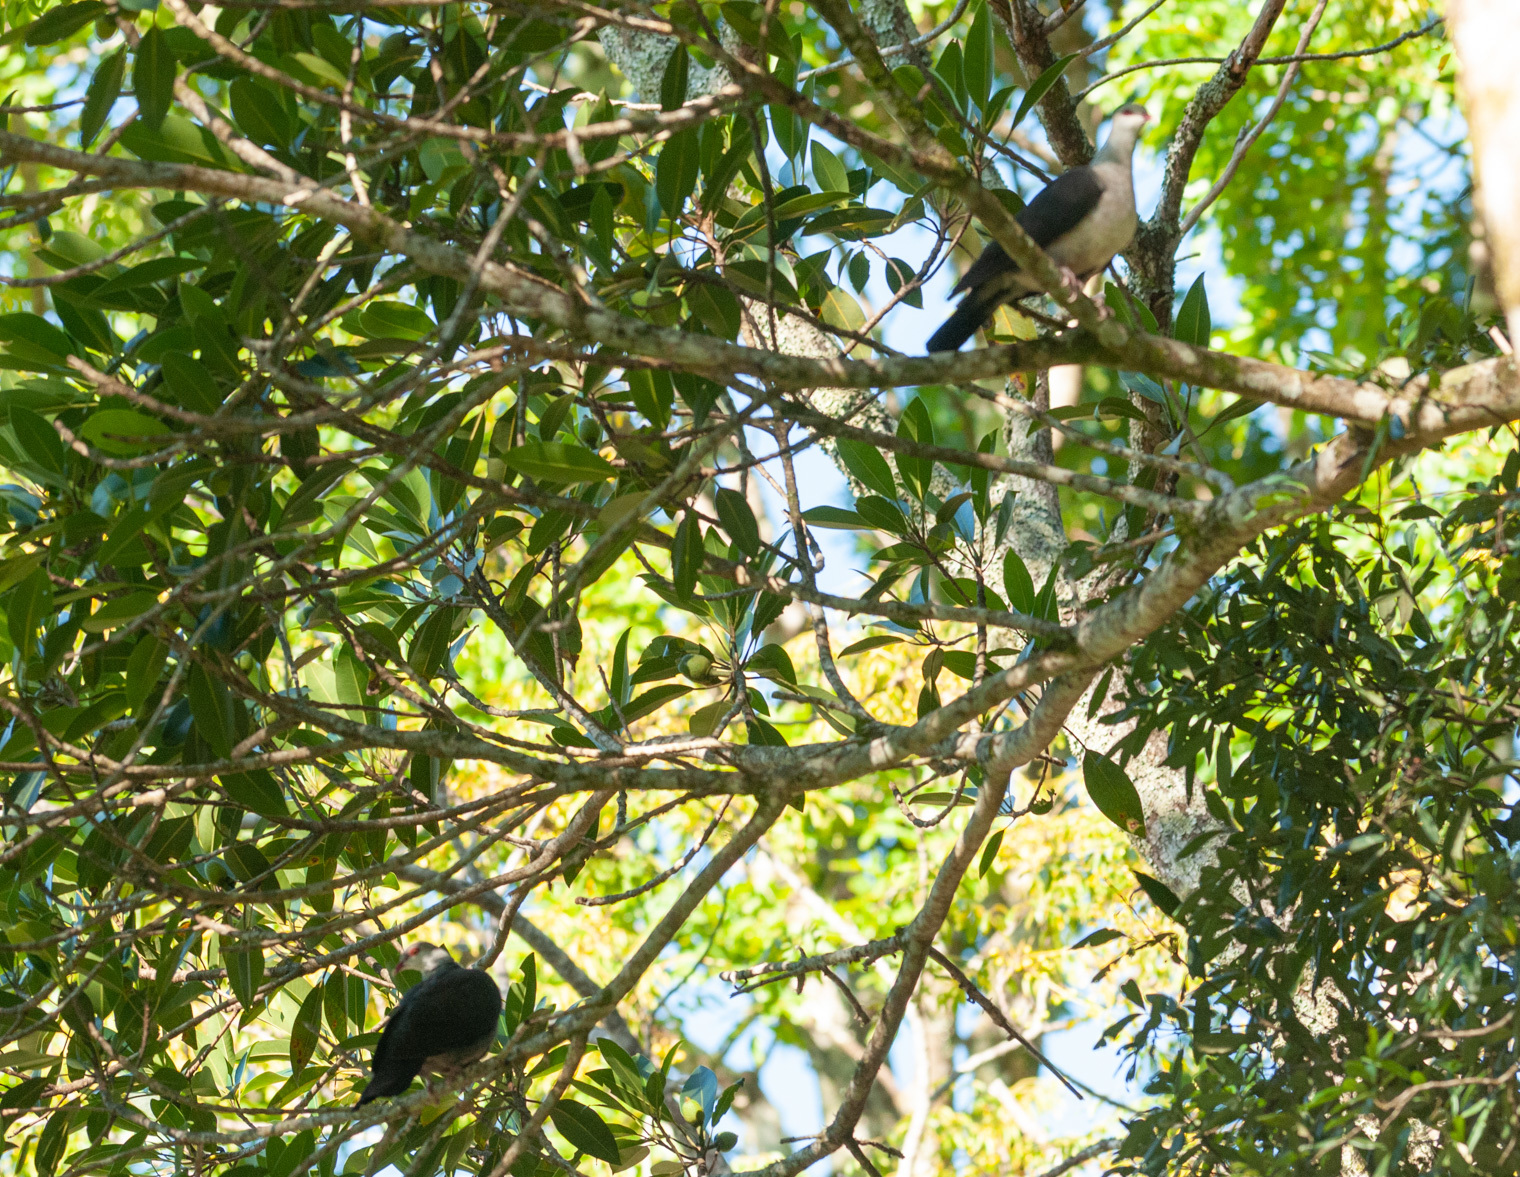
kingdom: Animalia
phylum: Chordata
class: Aves
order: Columbiformes
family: Columbidae
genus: Columba
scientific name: Columba leucomela
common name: White-headed pigeon
